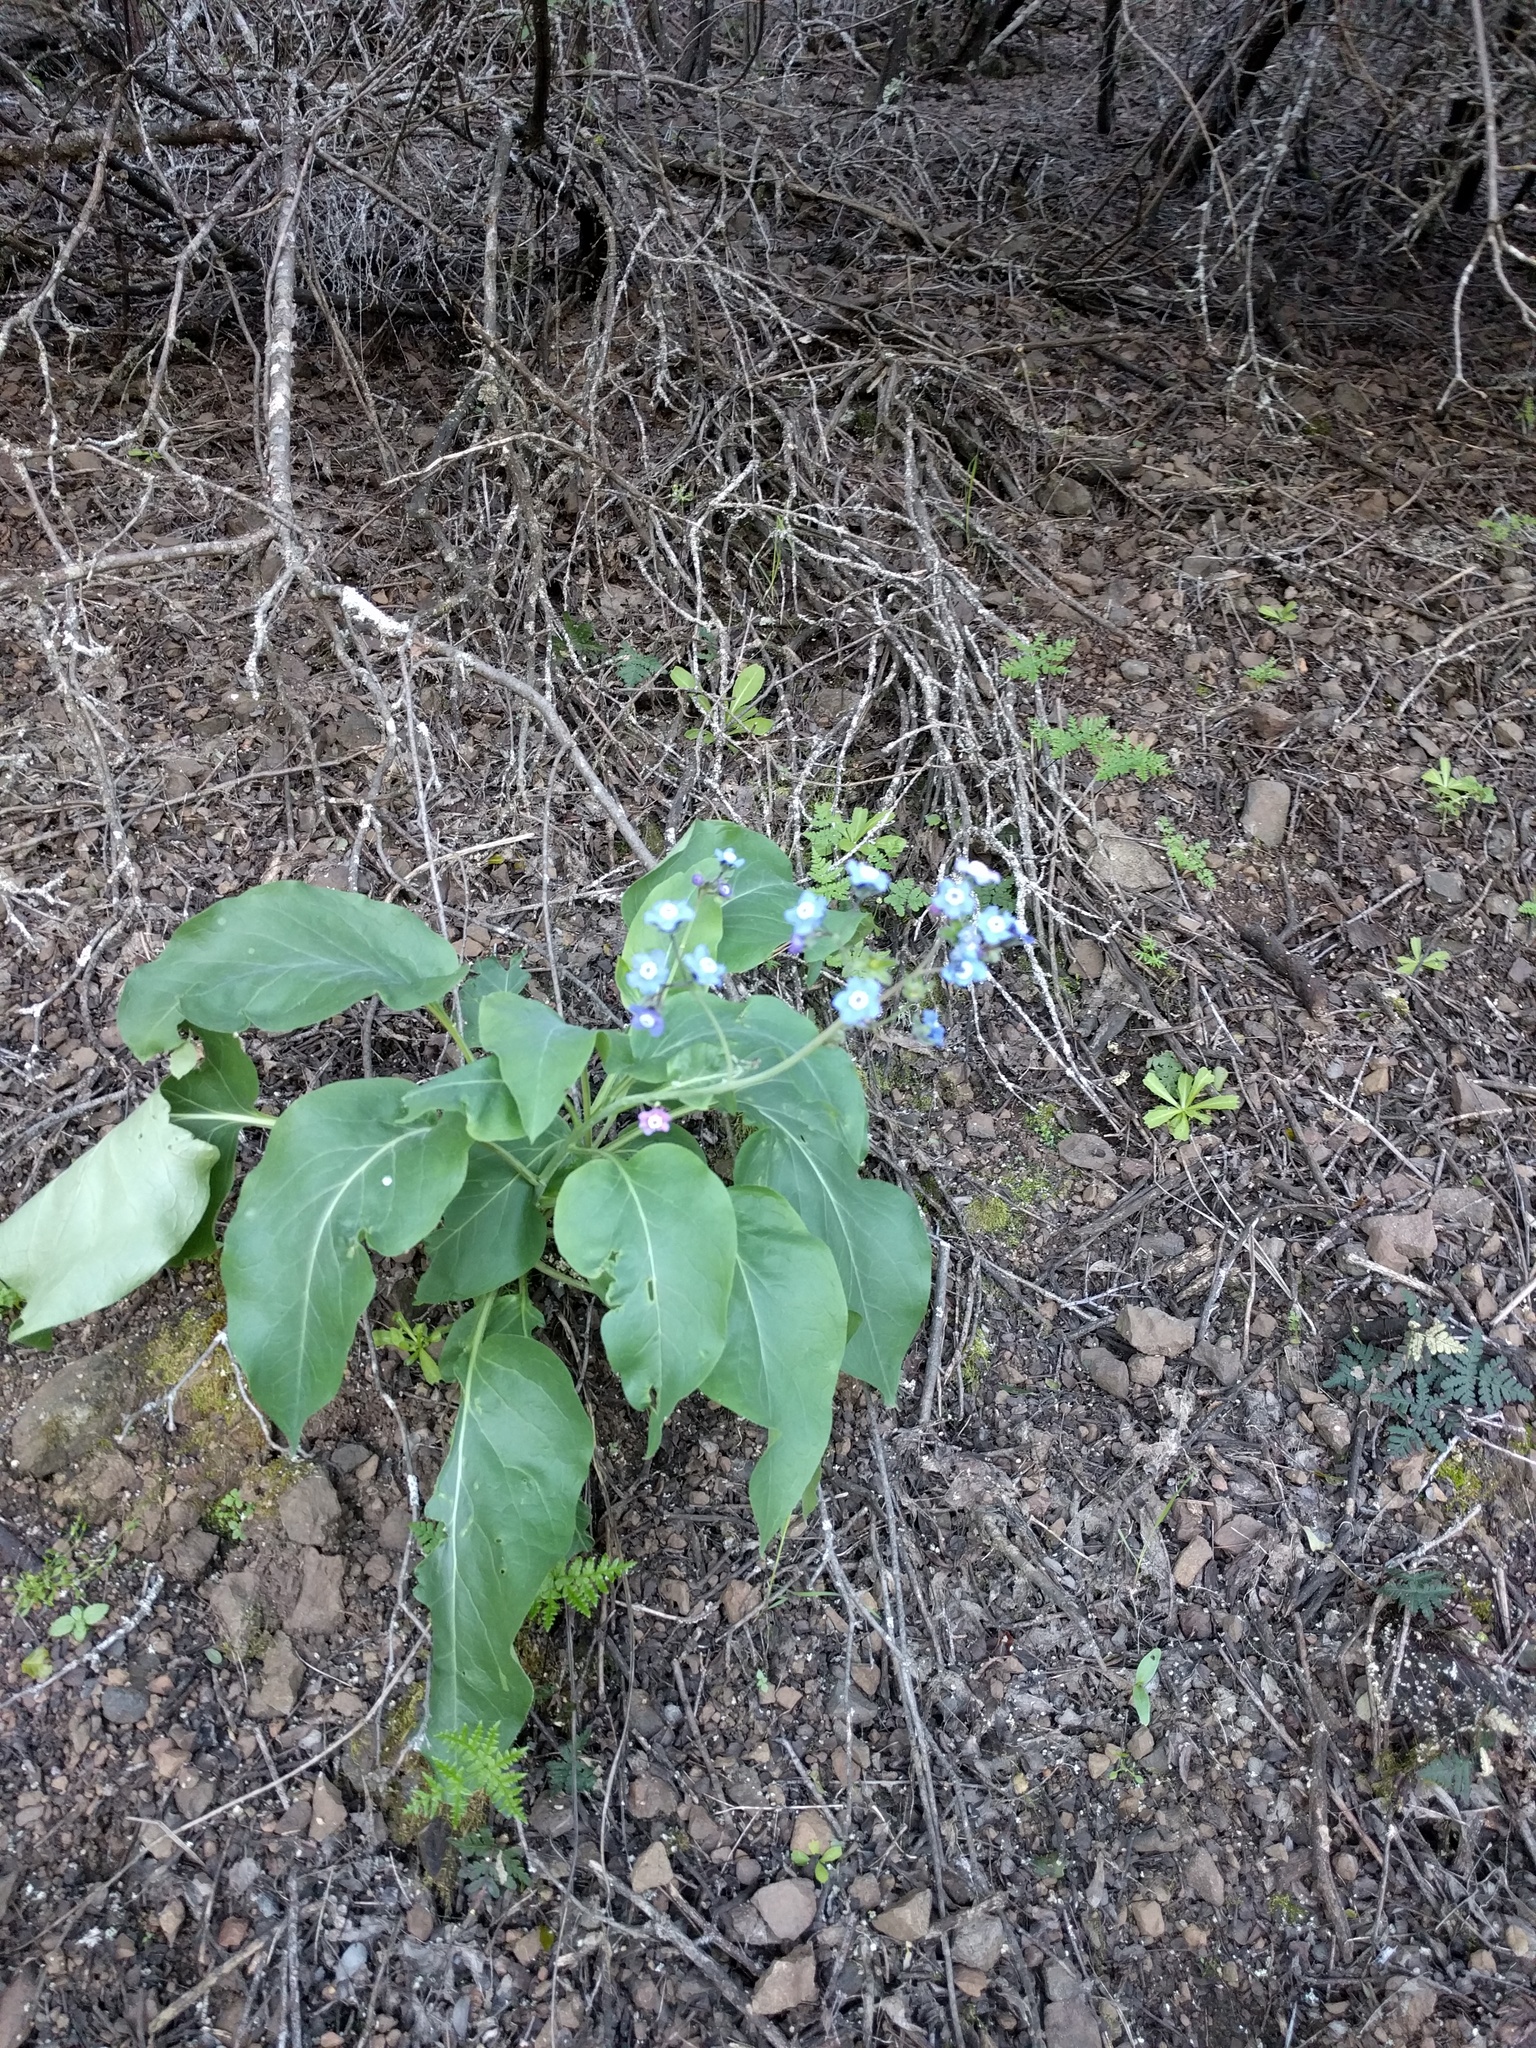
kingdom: Plantae
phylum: Tracheophyta
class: Magnoliopsida
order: Boraginales
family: Boraginaceae
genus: Adelinia
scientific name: Adelinia grande
